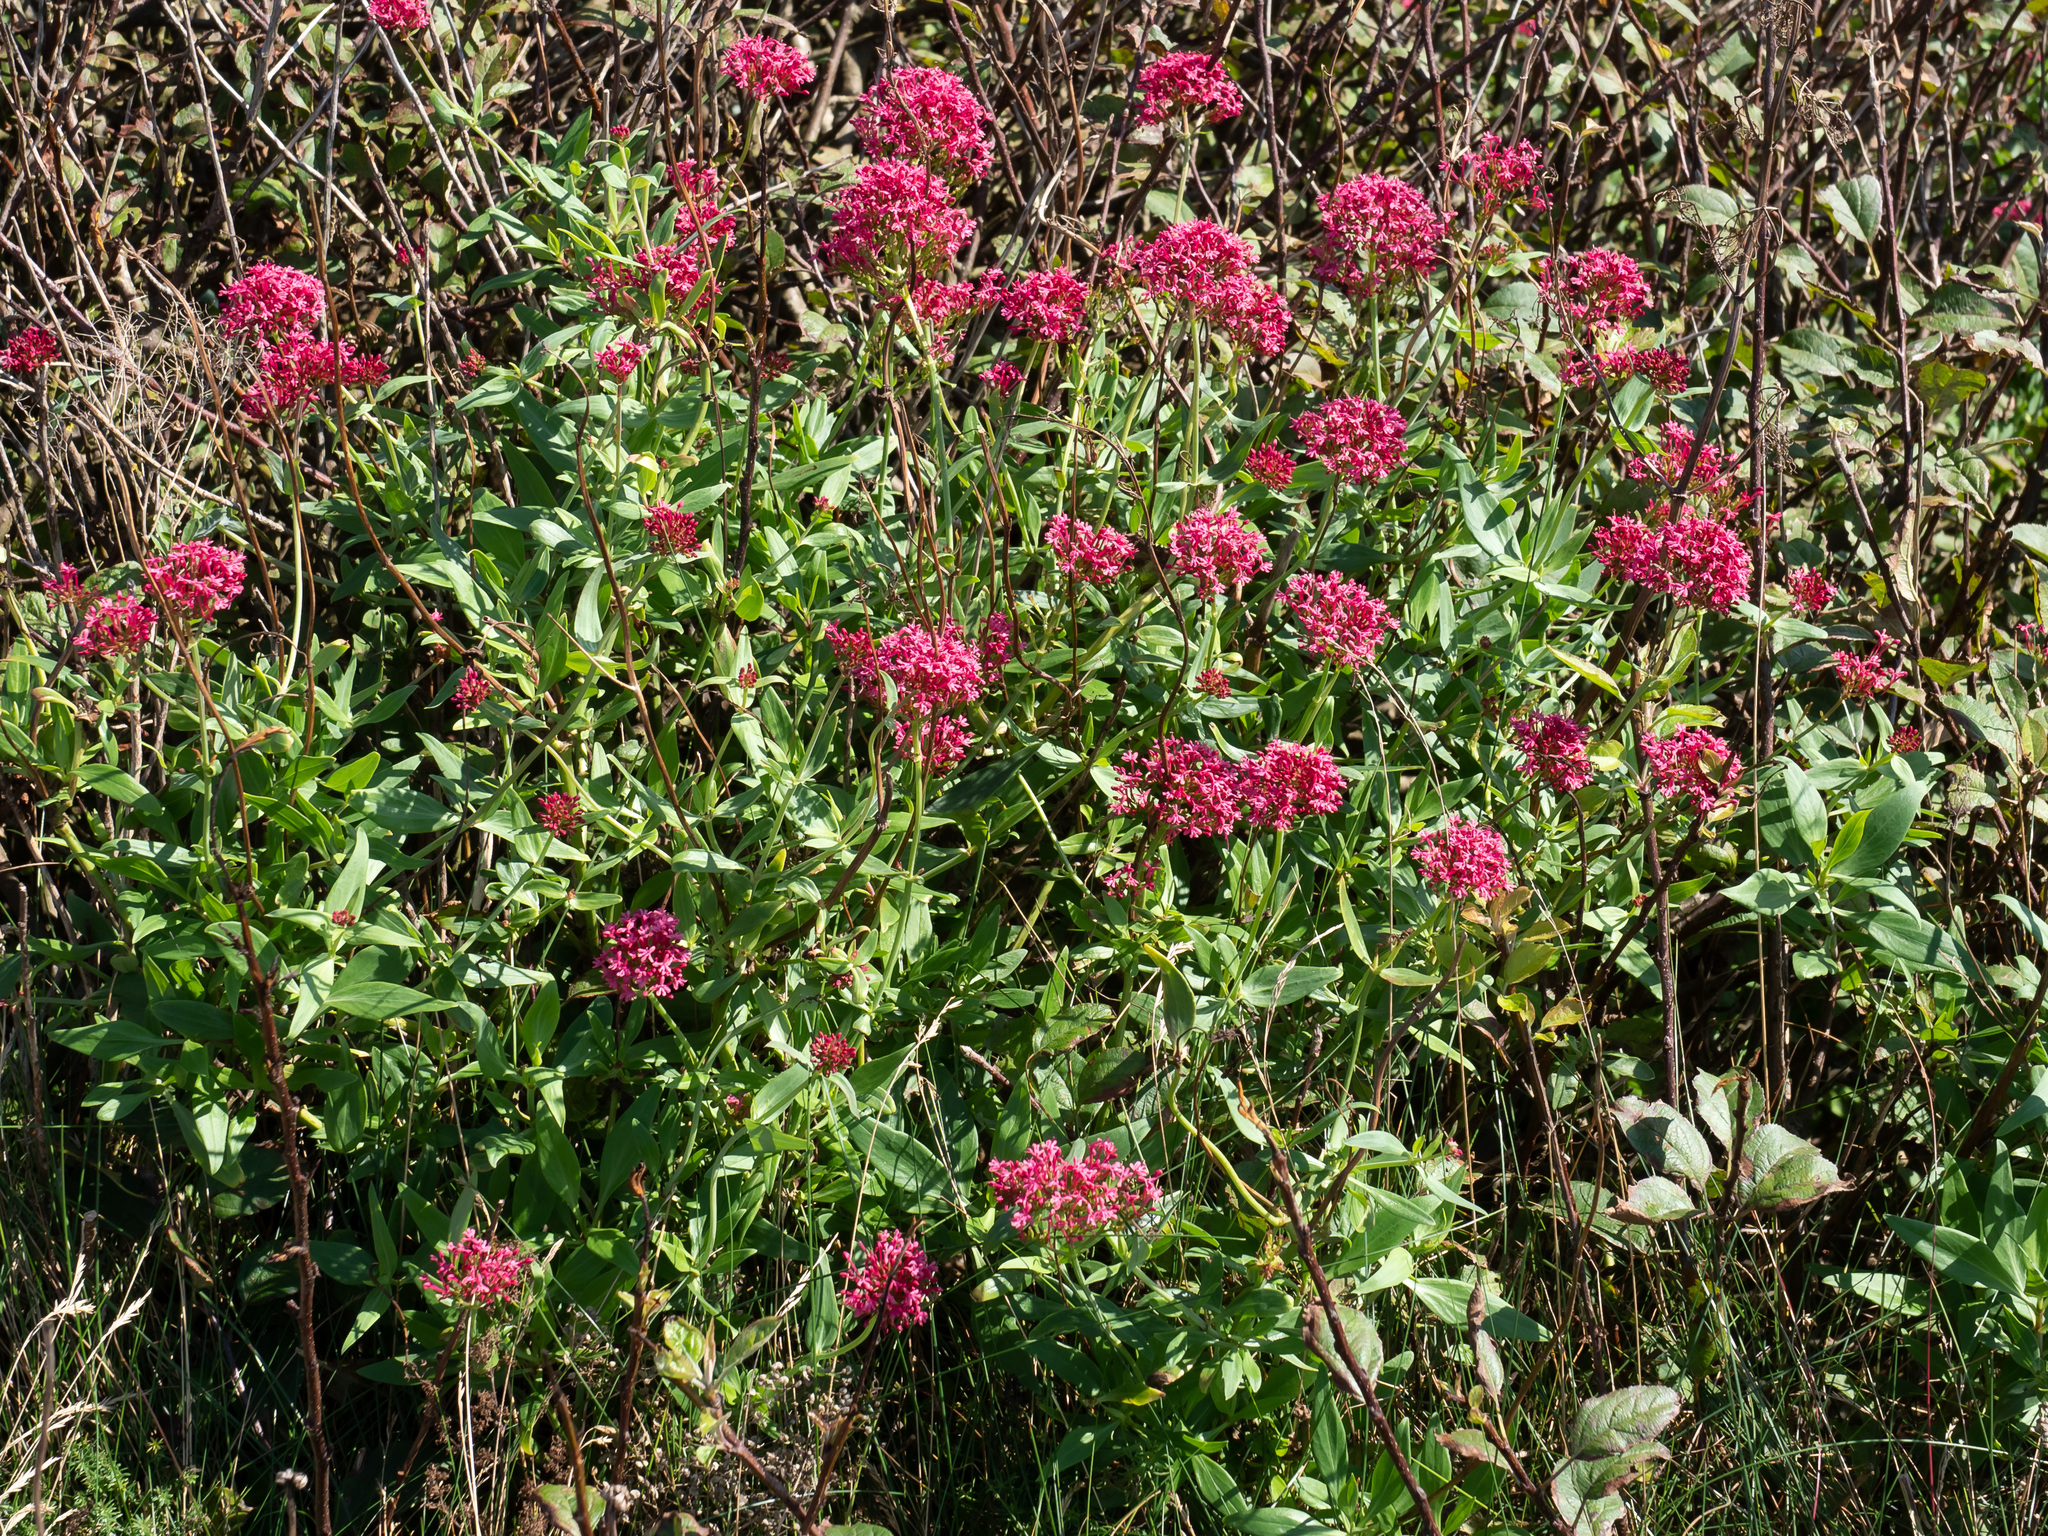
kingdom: Plantae
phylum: Tracheophyta
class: Magnoliopsida
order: Dipsacales
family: Caprifoliaceae
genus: Centranthus
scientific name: Centranthus ruber
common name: Red valerian
